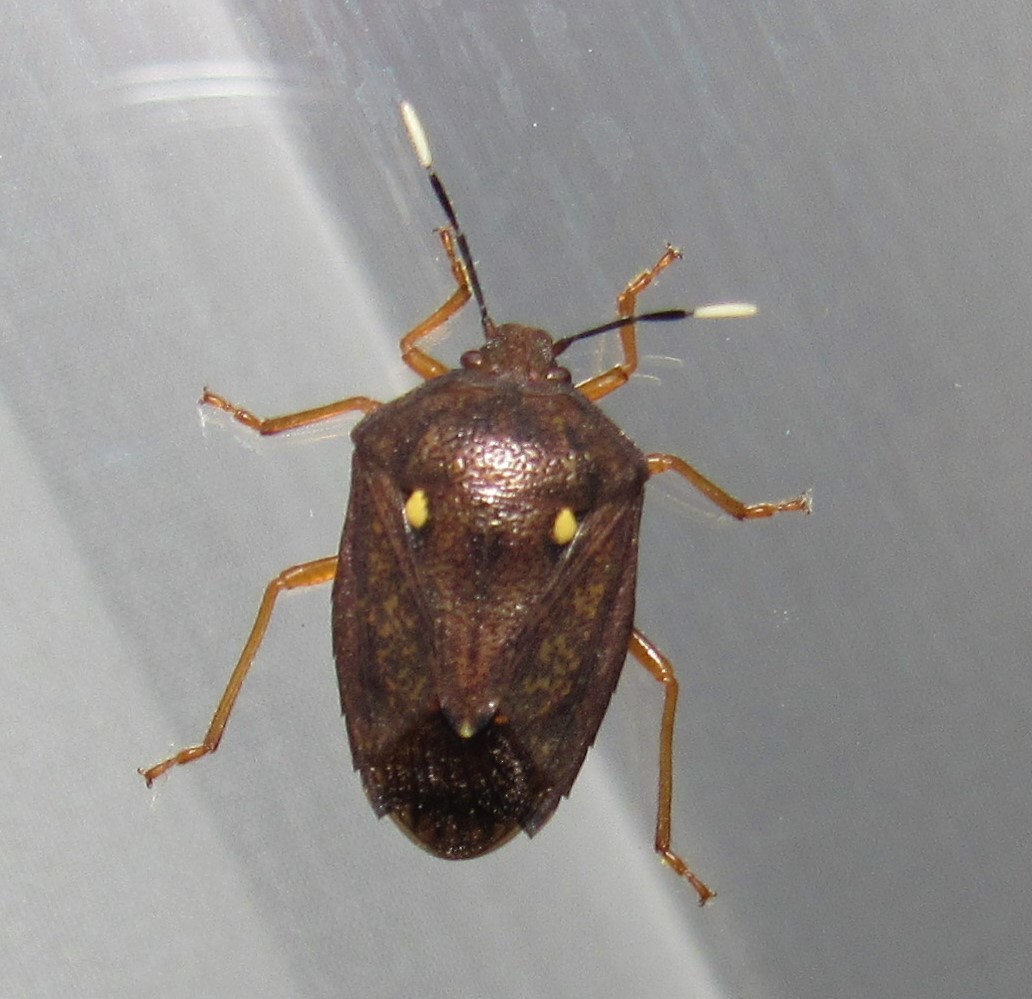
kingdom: Animalia
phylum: Arthropoda
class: Insecta
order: Hemiptera
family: Pentatomidae
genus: Serdia
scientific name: Serdia calligera
